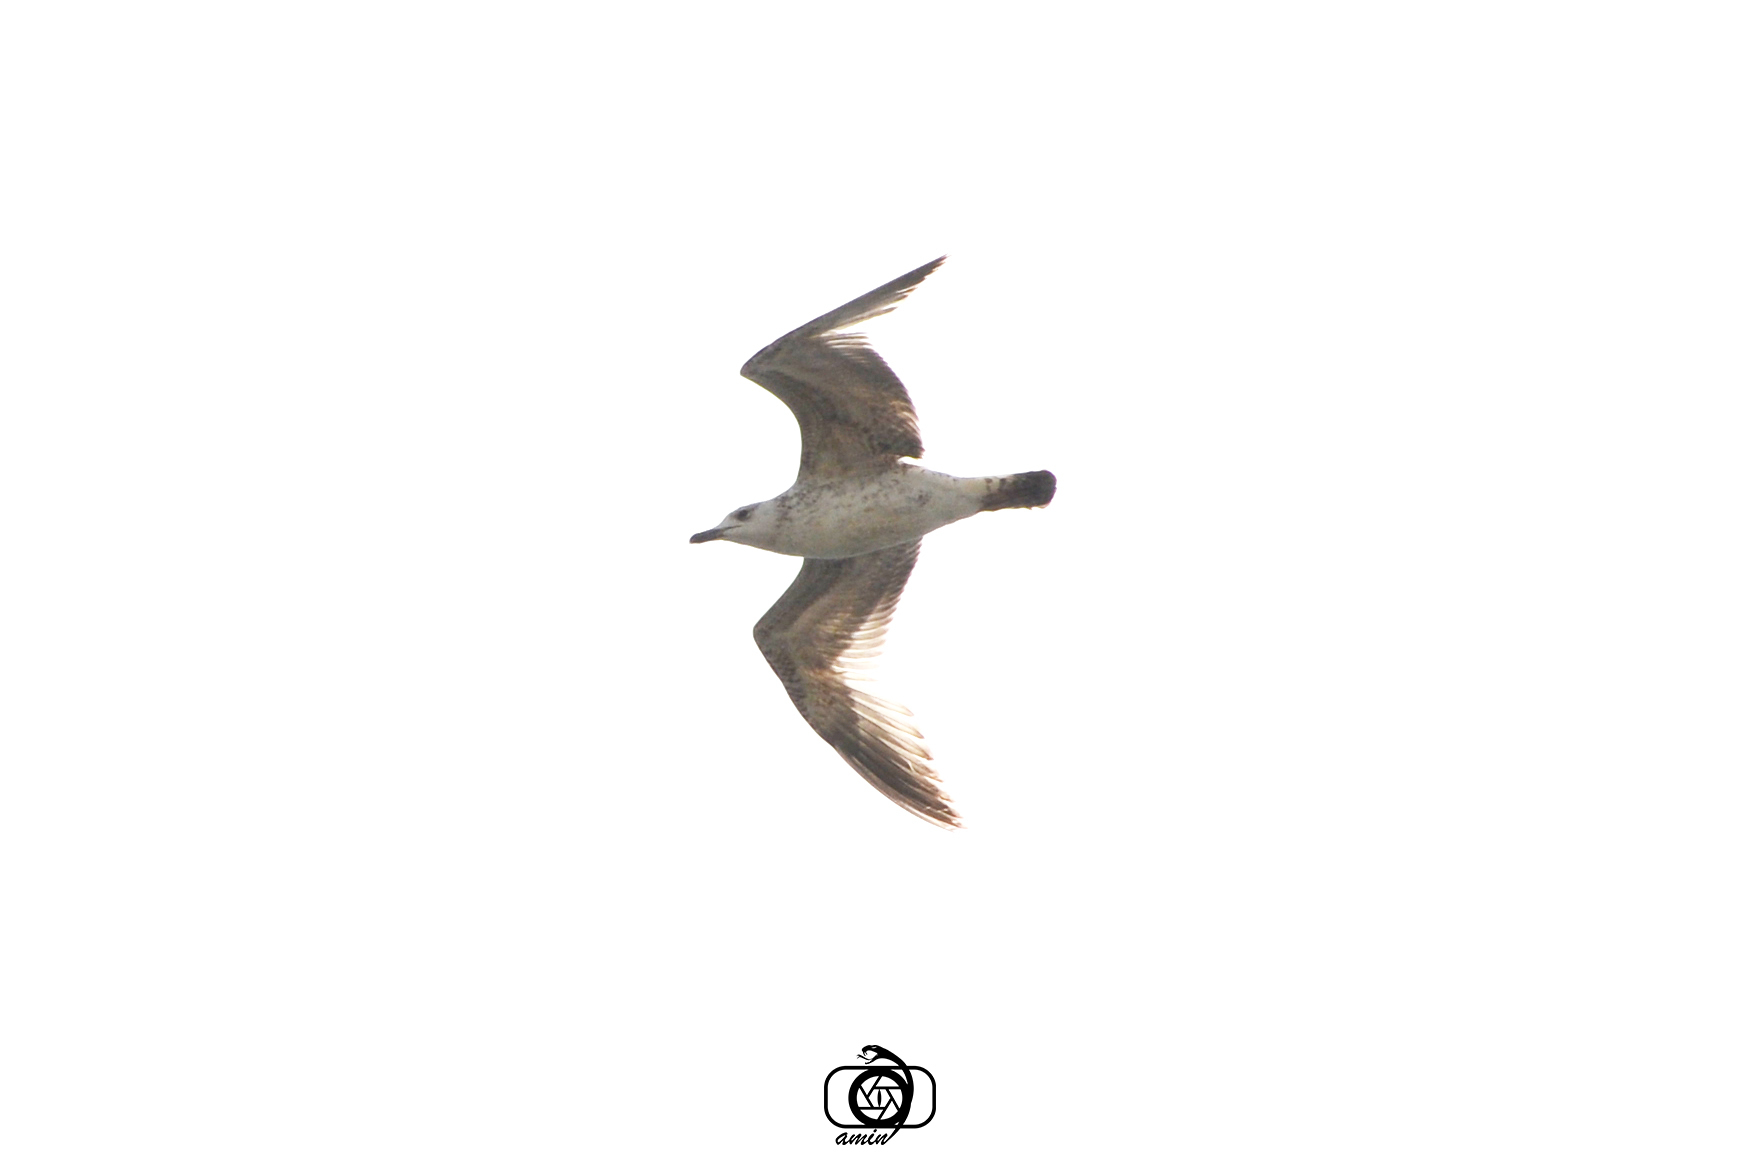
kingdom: Animalia
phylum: Chordata
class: Aves
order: Charadriiformes
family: Laridae
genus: Larus
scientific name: Larus armenicus
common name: Armenian gull
